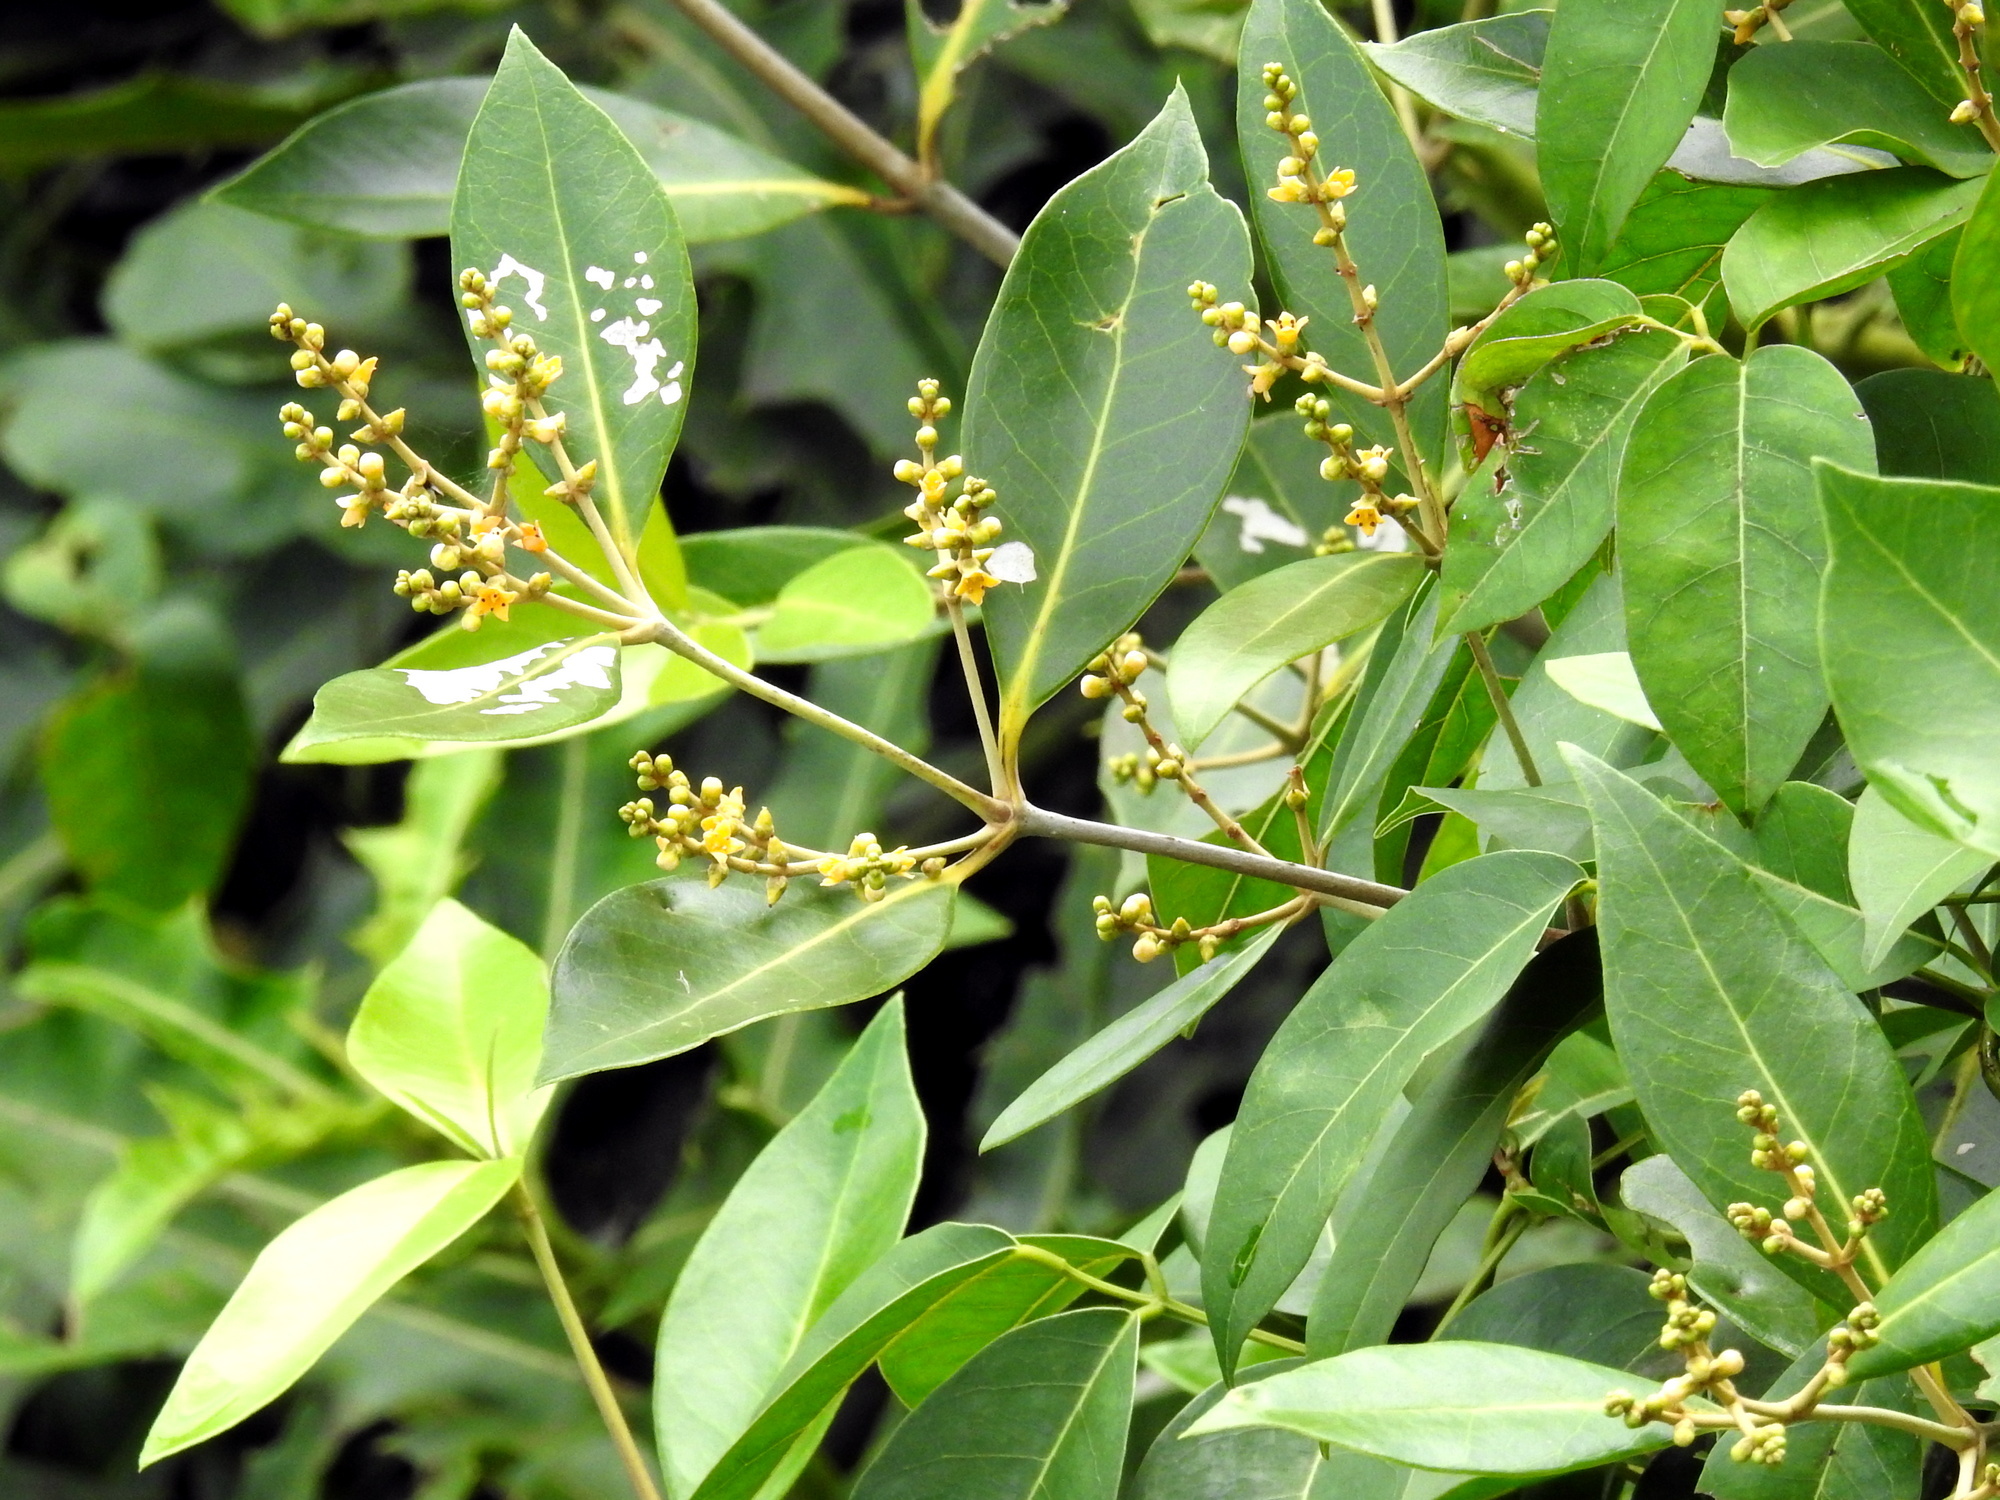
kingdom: Plantae
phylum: Tracheophyta
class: Magnoliopsida
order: Lamiales
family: Acanthaceae
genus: Avicennia
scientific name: Avicennia alba
